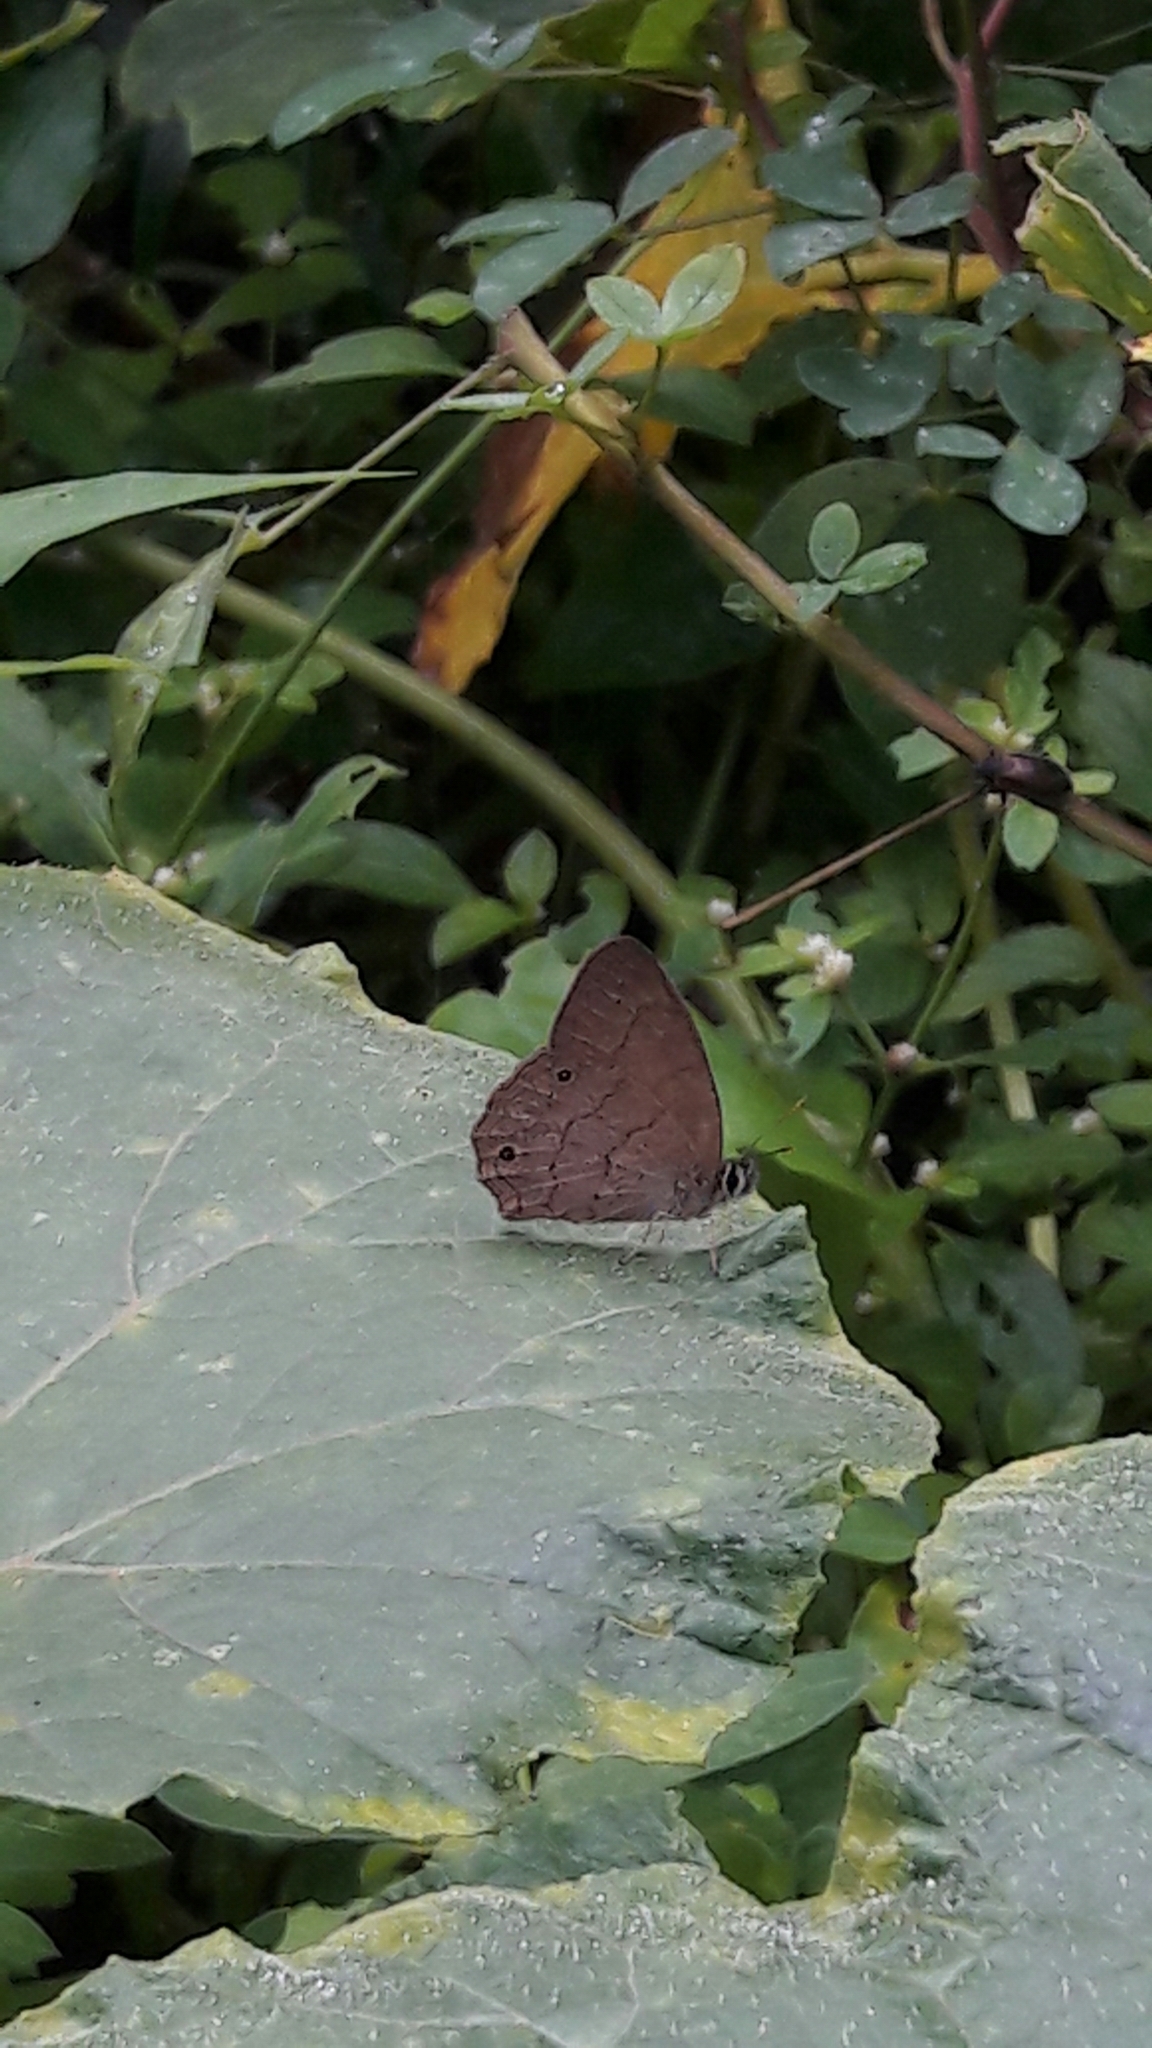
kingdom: Animalia
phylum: Arthropoda
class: Insecta
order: Lepidoptera
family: Nymphalidae
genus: Euptychia
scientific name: Euptychia Cissia eous
